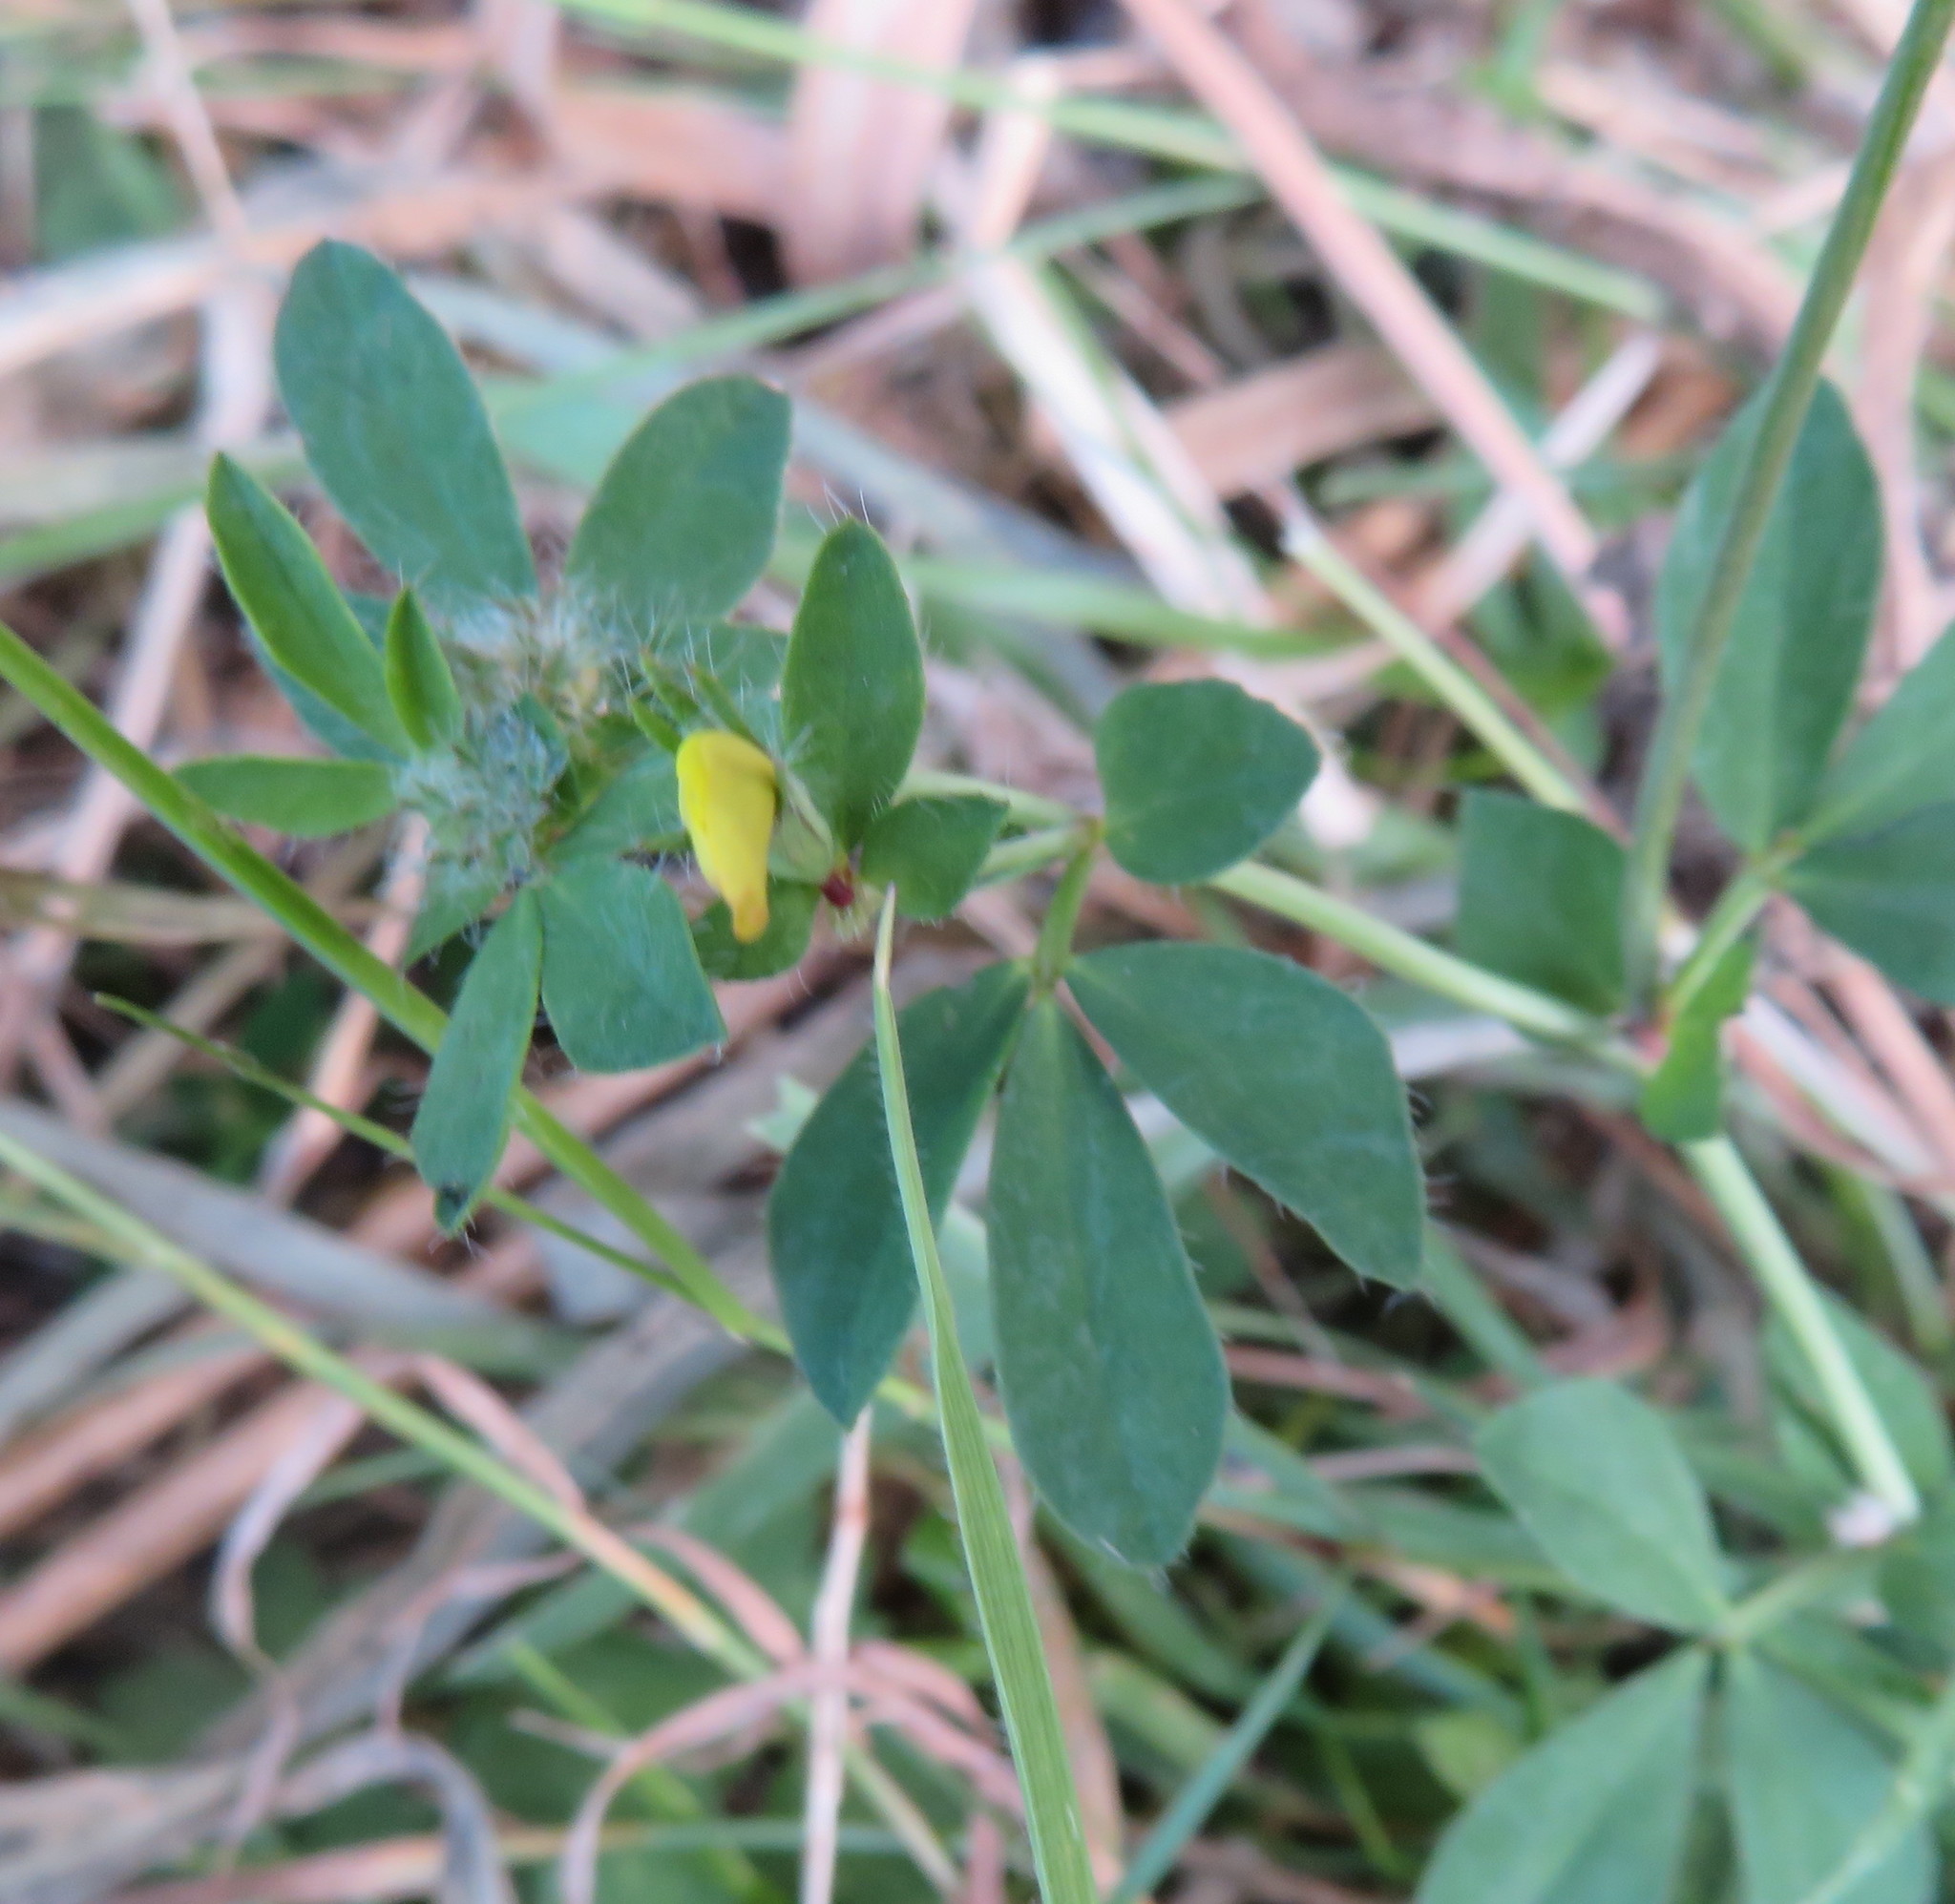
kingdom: Plantae
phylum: Tracheophyta
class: Magnoliopsida
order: Fabales
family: Fabaceae
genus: Lotus
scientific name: Lotus pedunculatus
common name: Greater birdsfoot-trefoil
